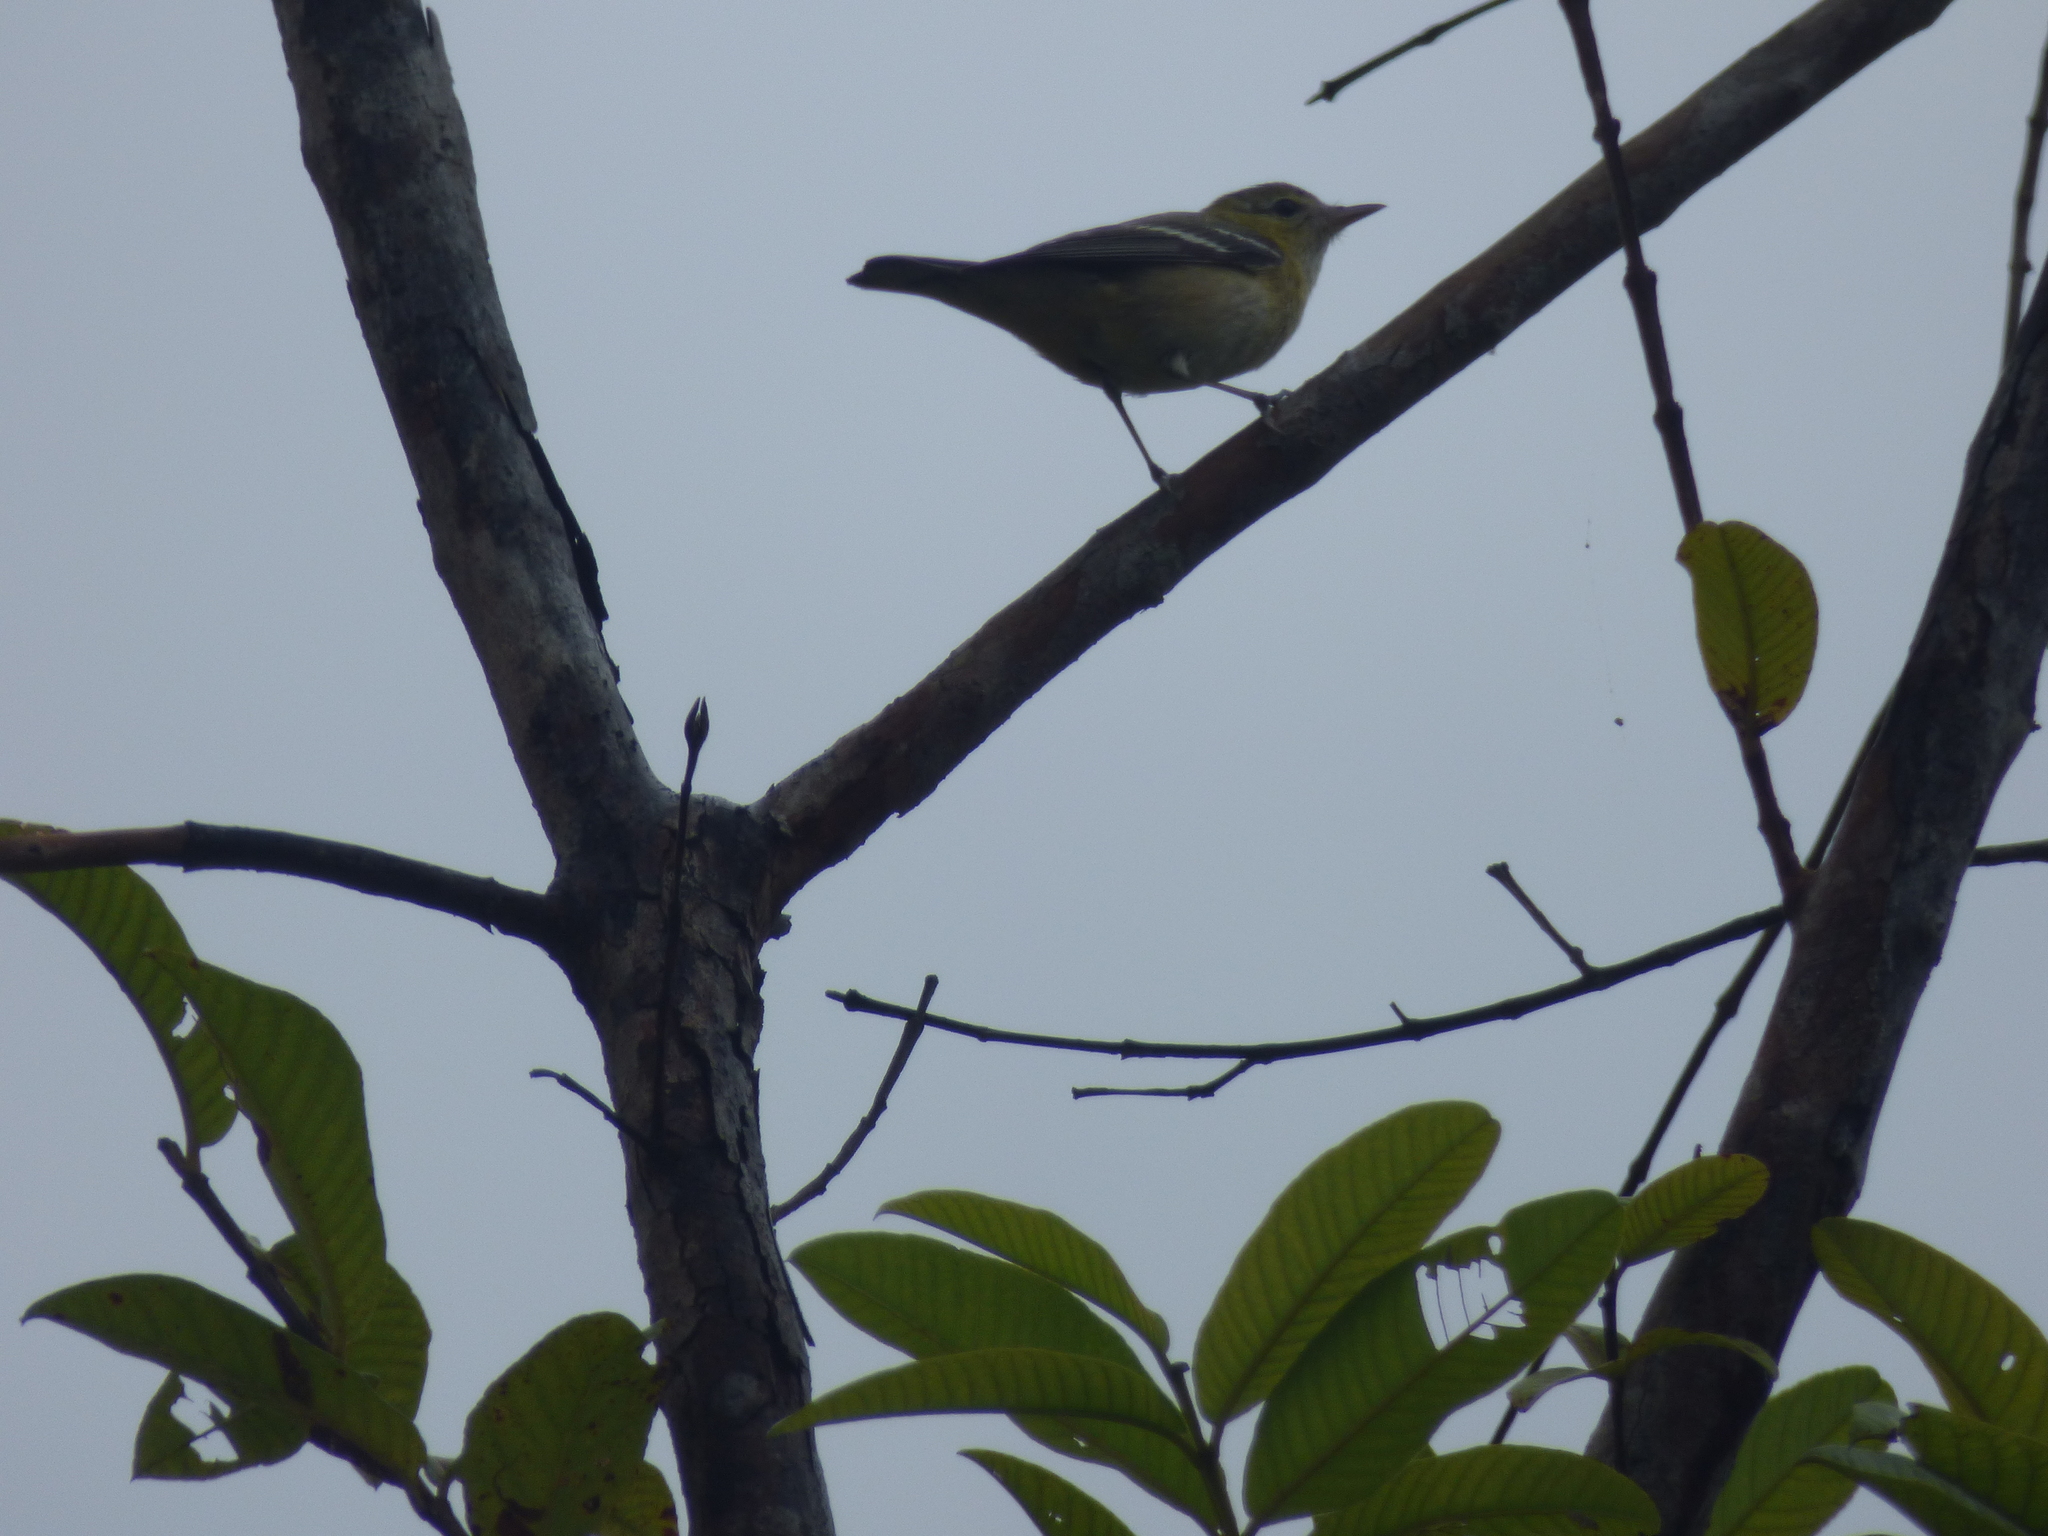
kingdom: Animalia
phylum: Chordata
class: Aves
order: Passeriformes
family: Parulidae
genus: Setophaga
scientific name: Setophaga castanea
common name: Bay-breasted warbler
